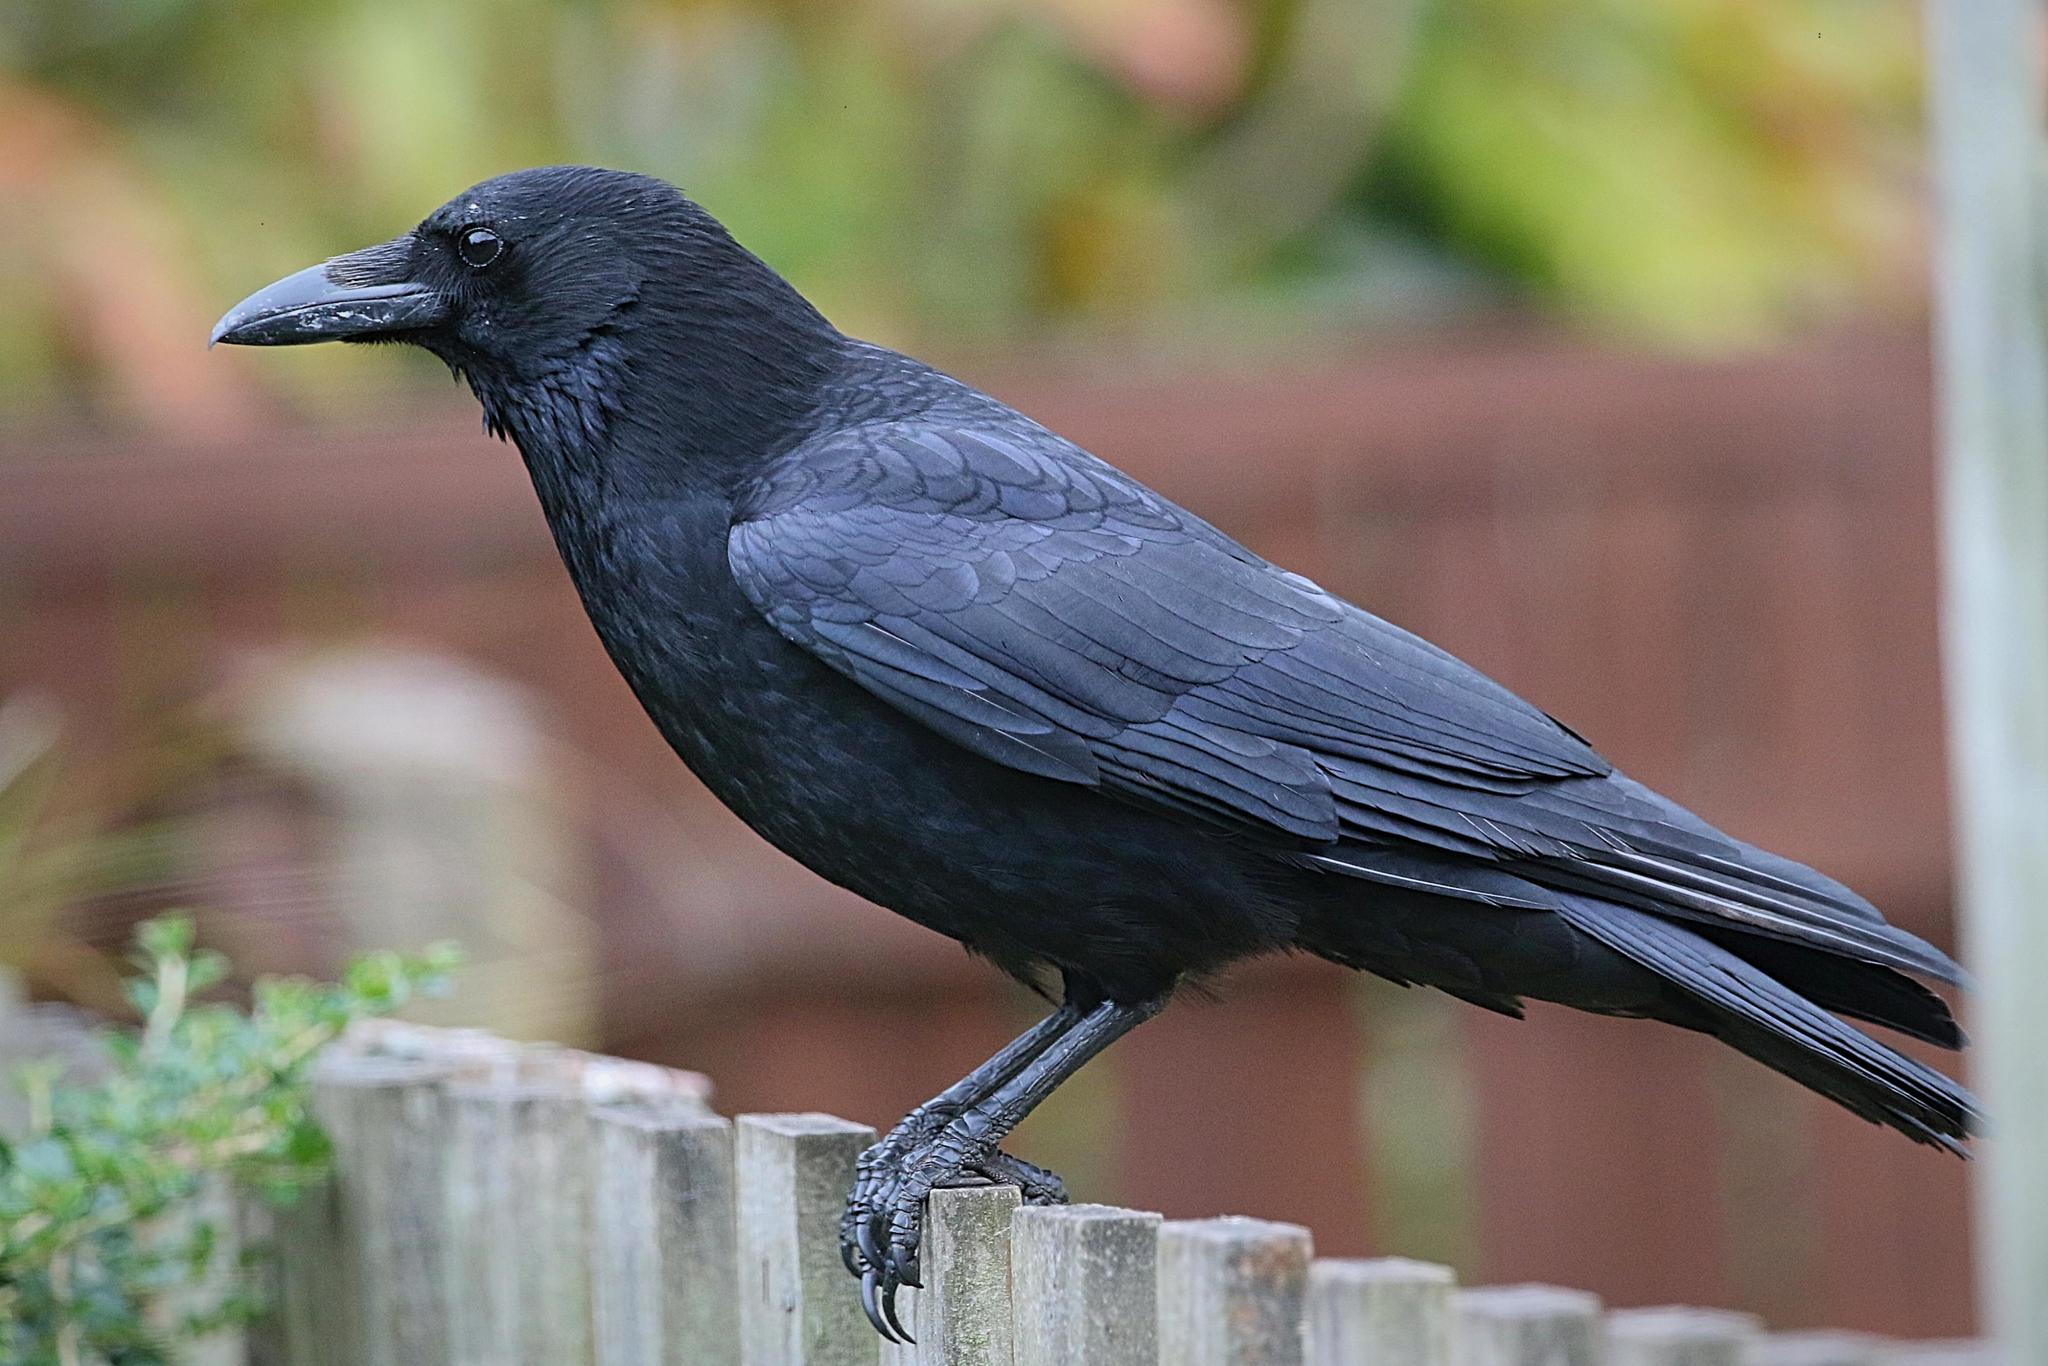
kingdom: Animalia
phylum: Chordata
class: Aves
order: Passeriformes
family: Corvidae
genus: Corvus
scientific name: Corvus corone
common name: Carrion crow
